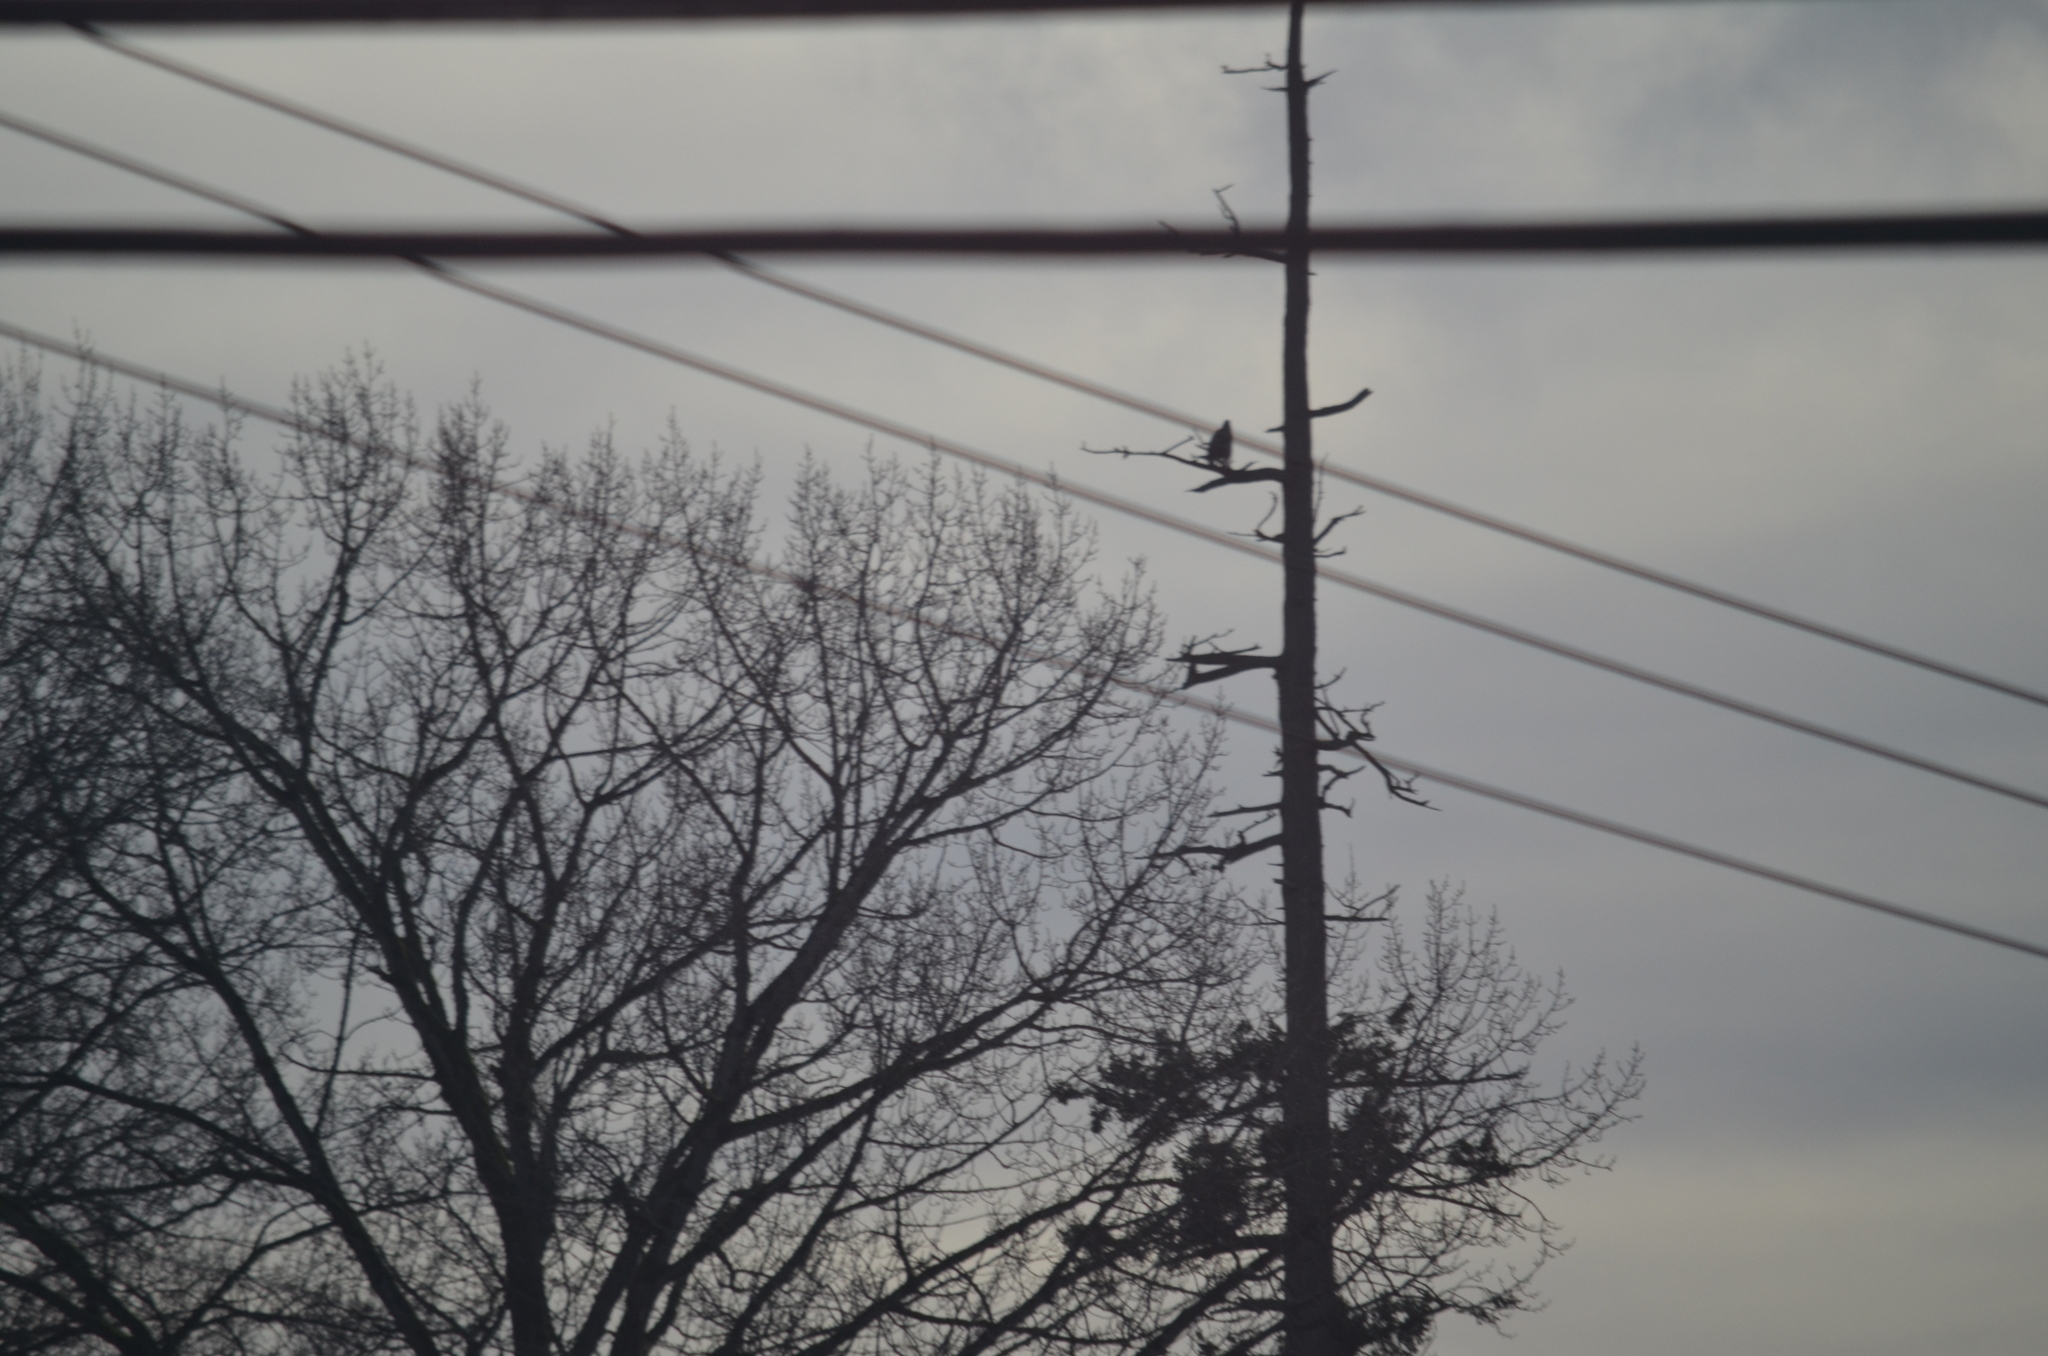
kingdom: Animalia
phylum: Chordata
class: Aves
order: Accipitriformes
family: Accipitridae
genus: Haliaeetus
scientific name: Haliaeetus leucocephalus
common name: Bald eagle
